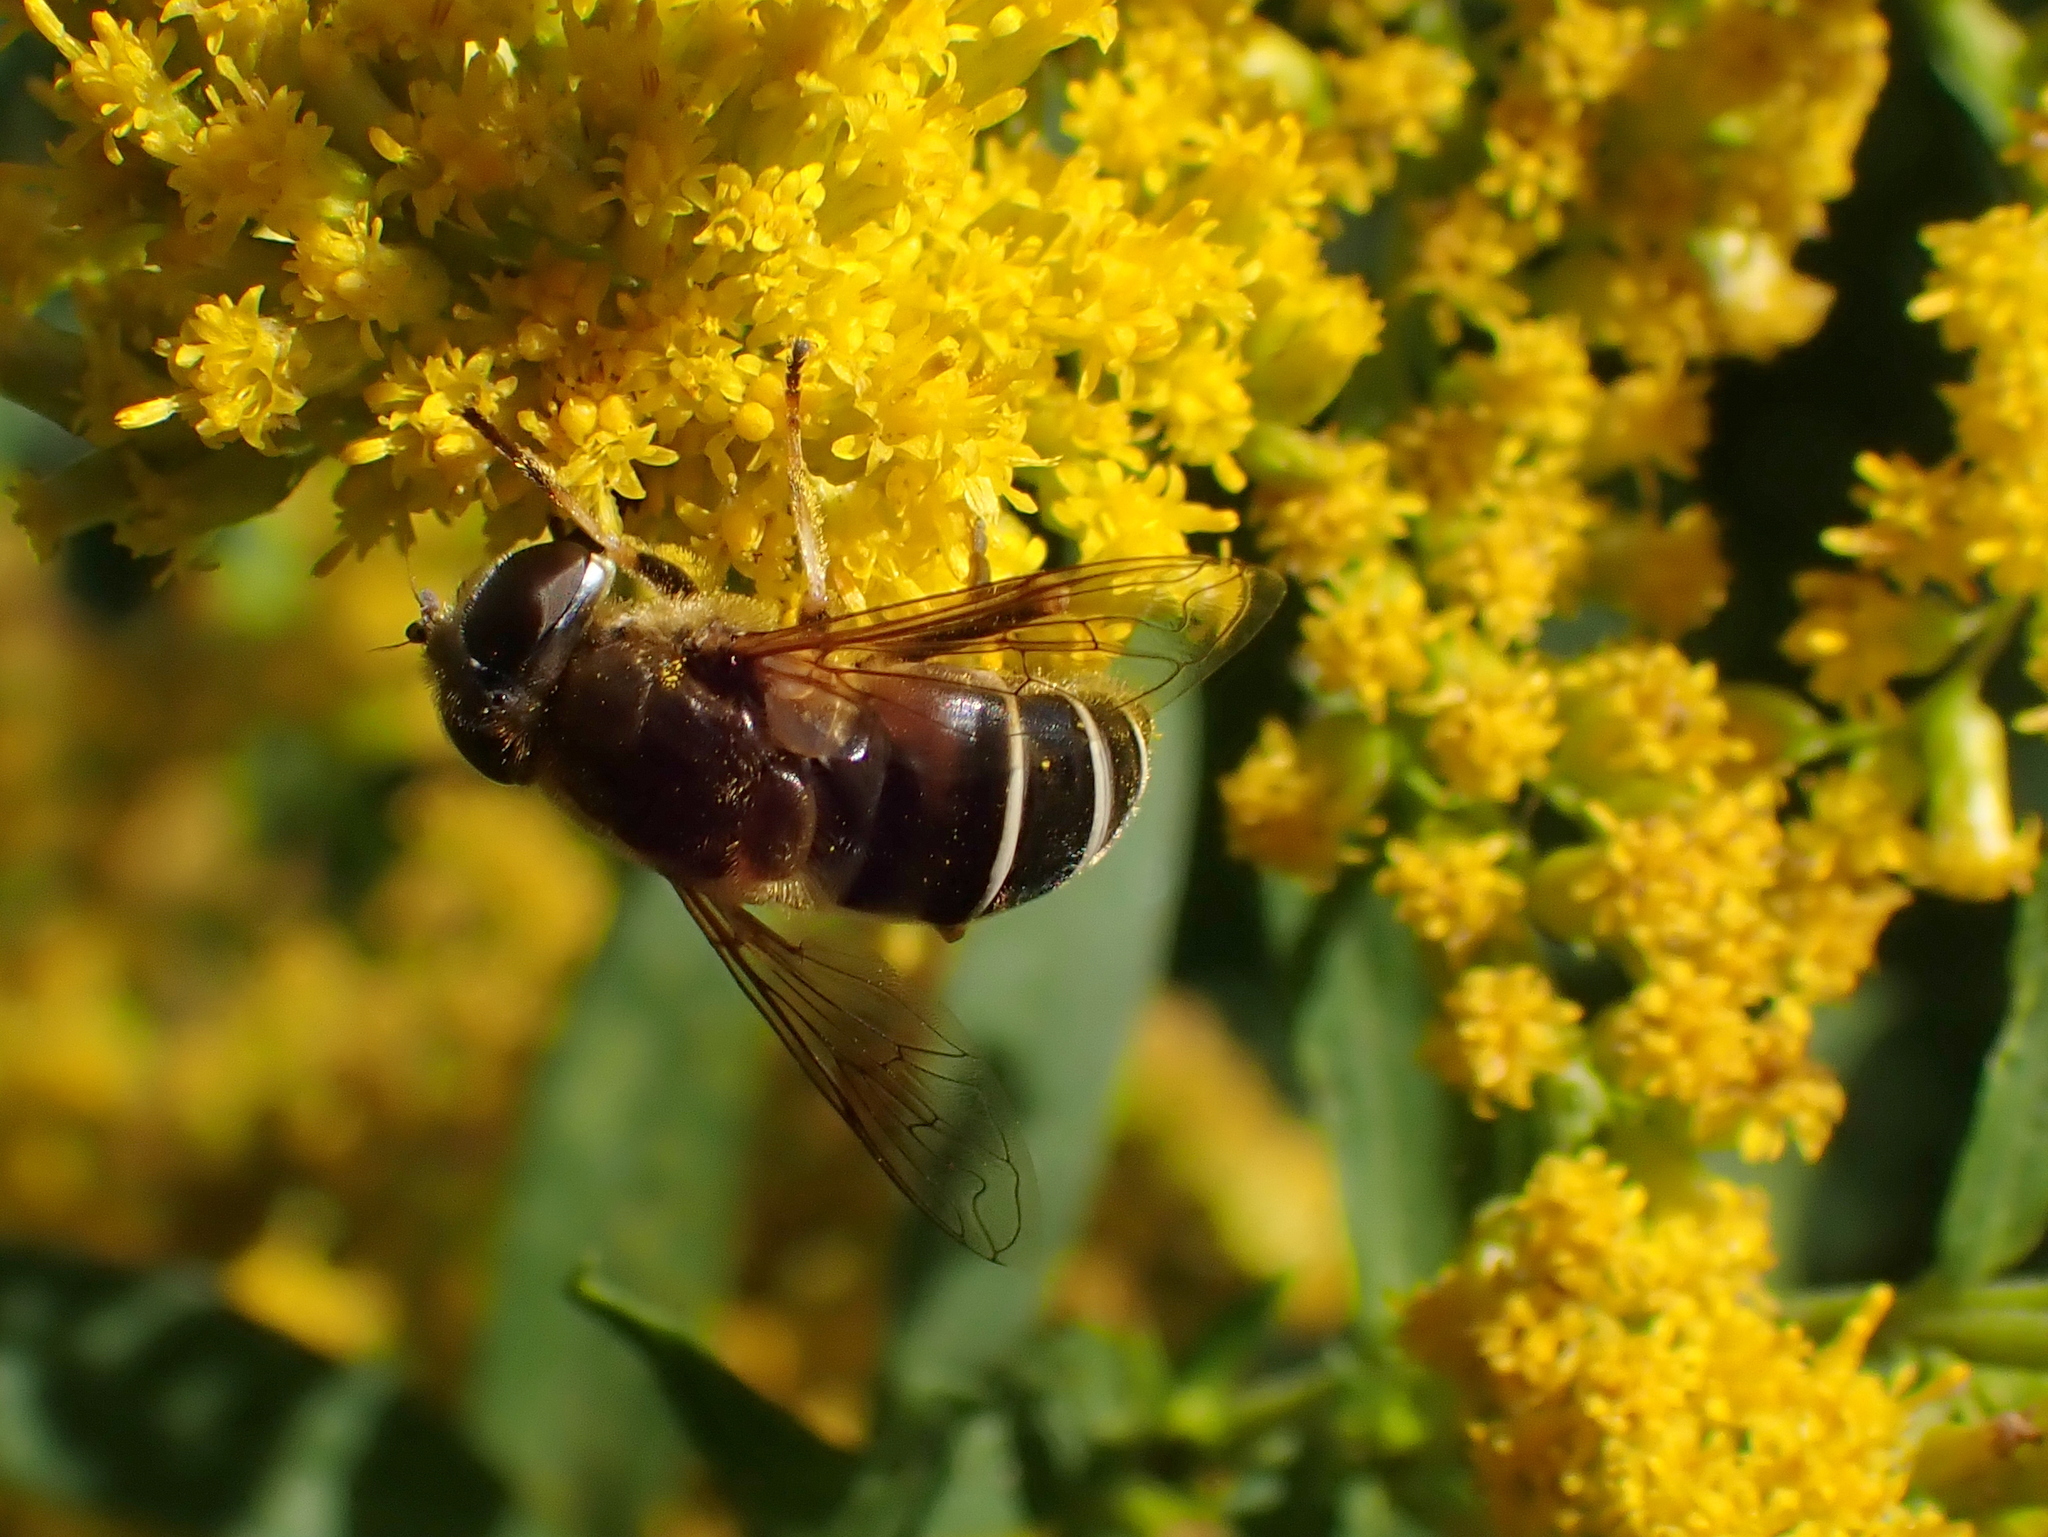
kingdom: Animalia
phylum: Arthropoda
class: Insecta
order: Diptera
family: Syrphidae
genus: Eristalis
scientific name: Eristalis nemorum
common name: Orange-spined drone fly
